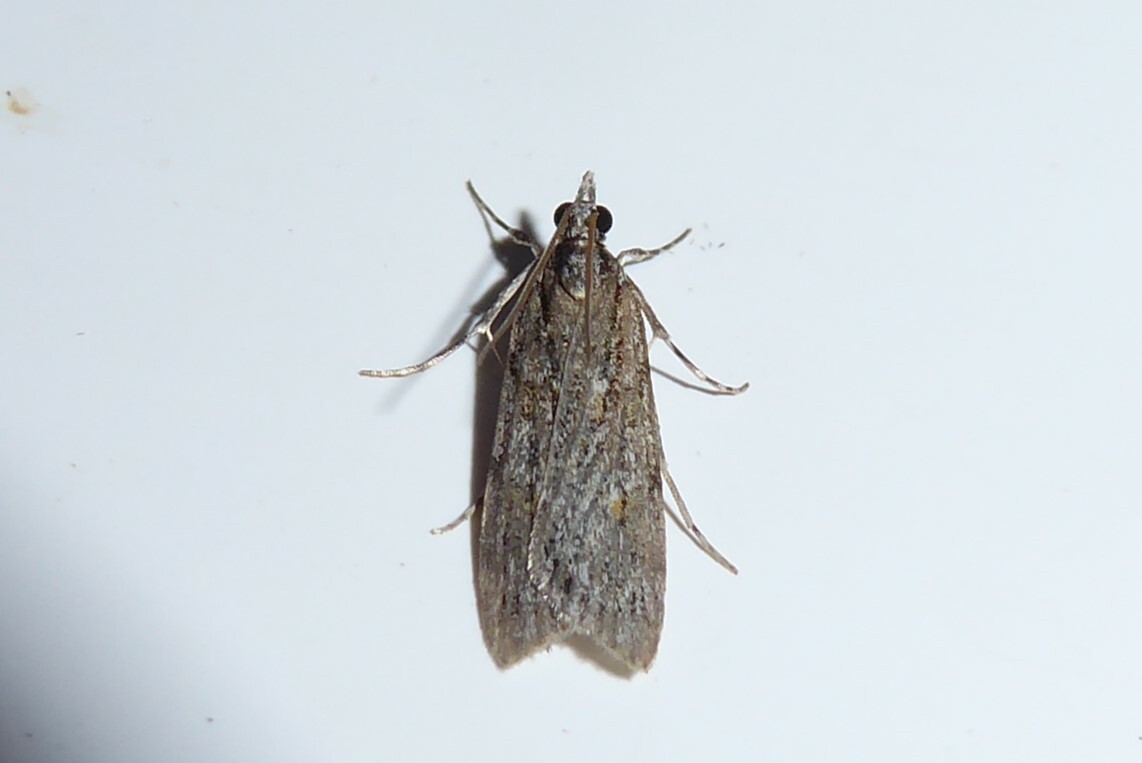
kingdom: Animalia
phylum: Arthropoda
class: Insecta
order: Lepidoptera
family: Crambidae
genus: Scoparia
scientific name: Scoparia chalicodes
